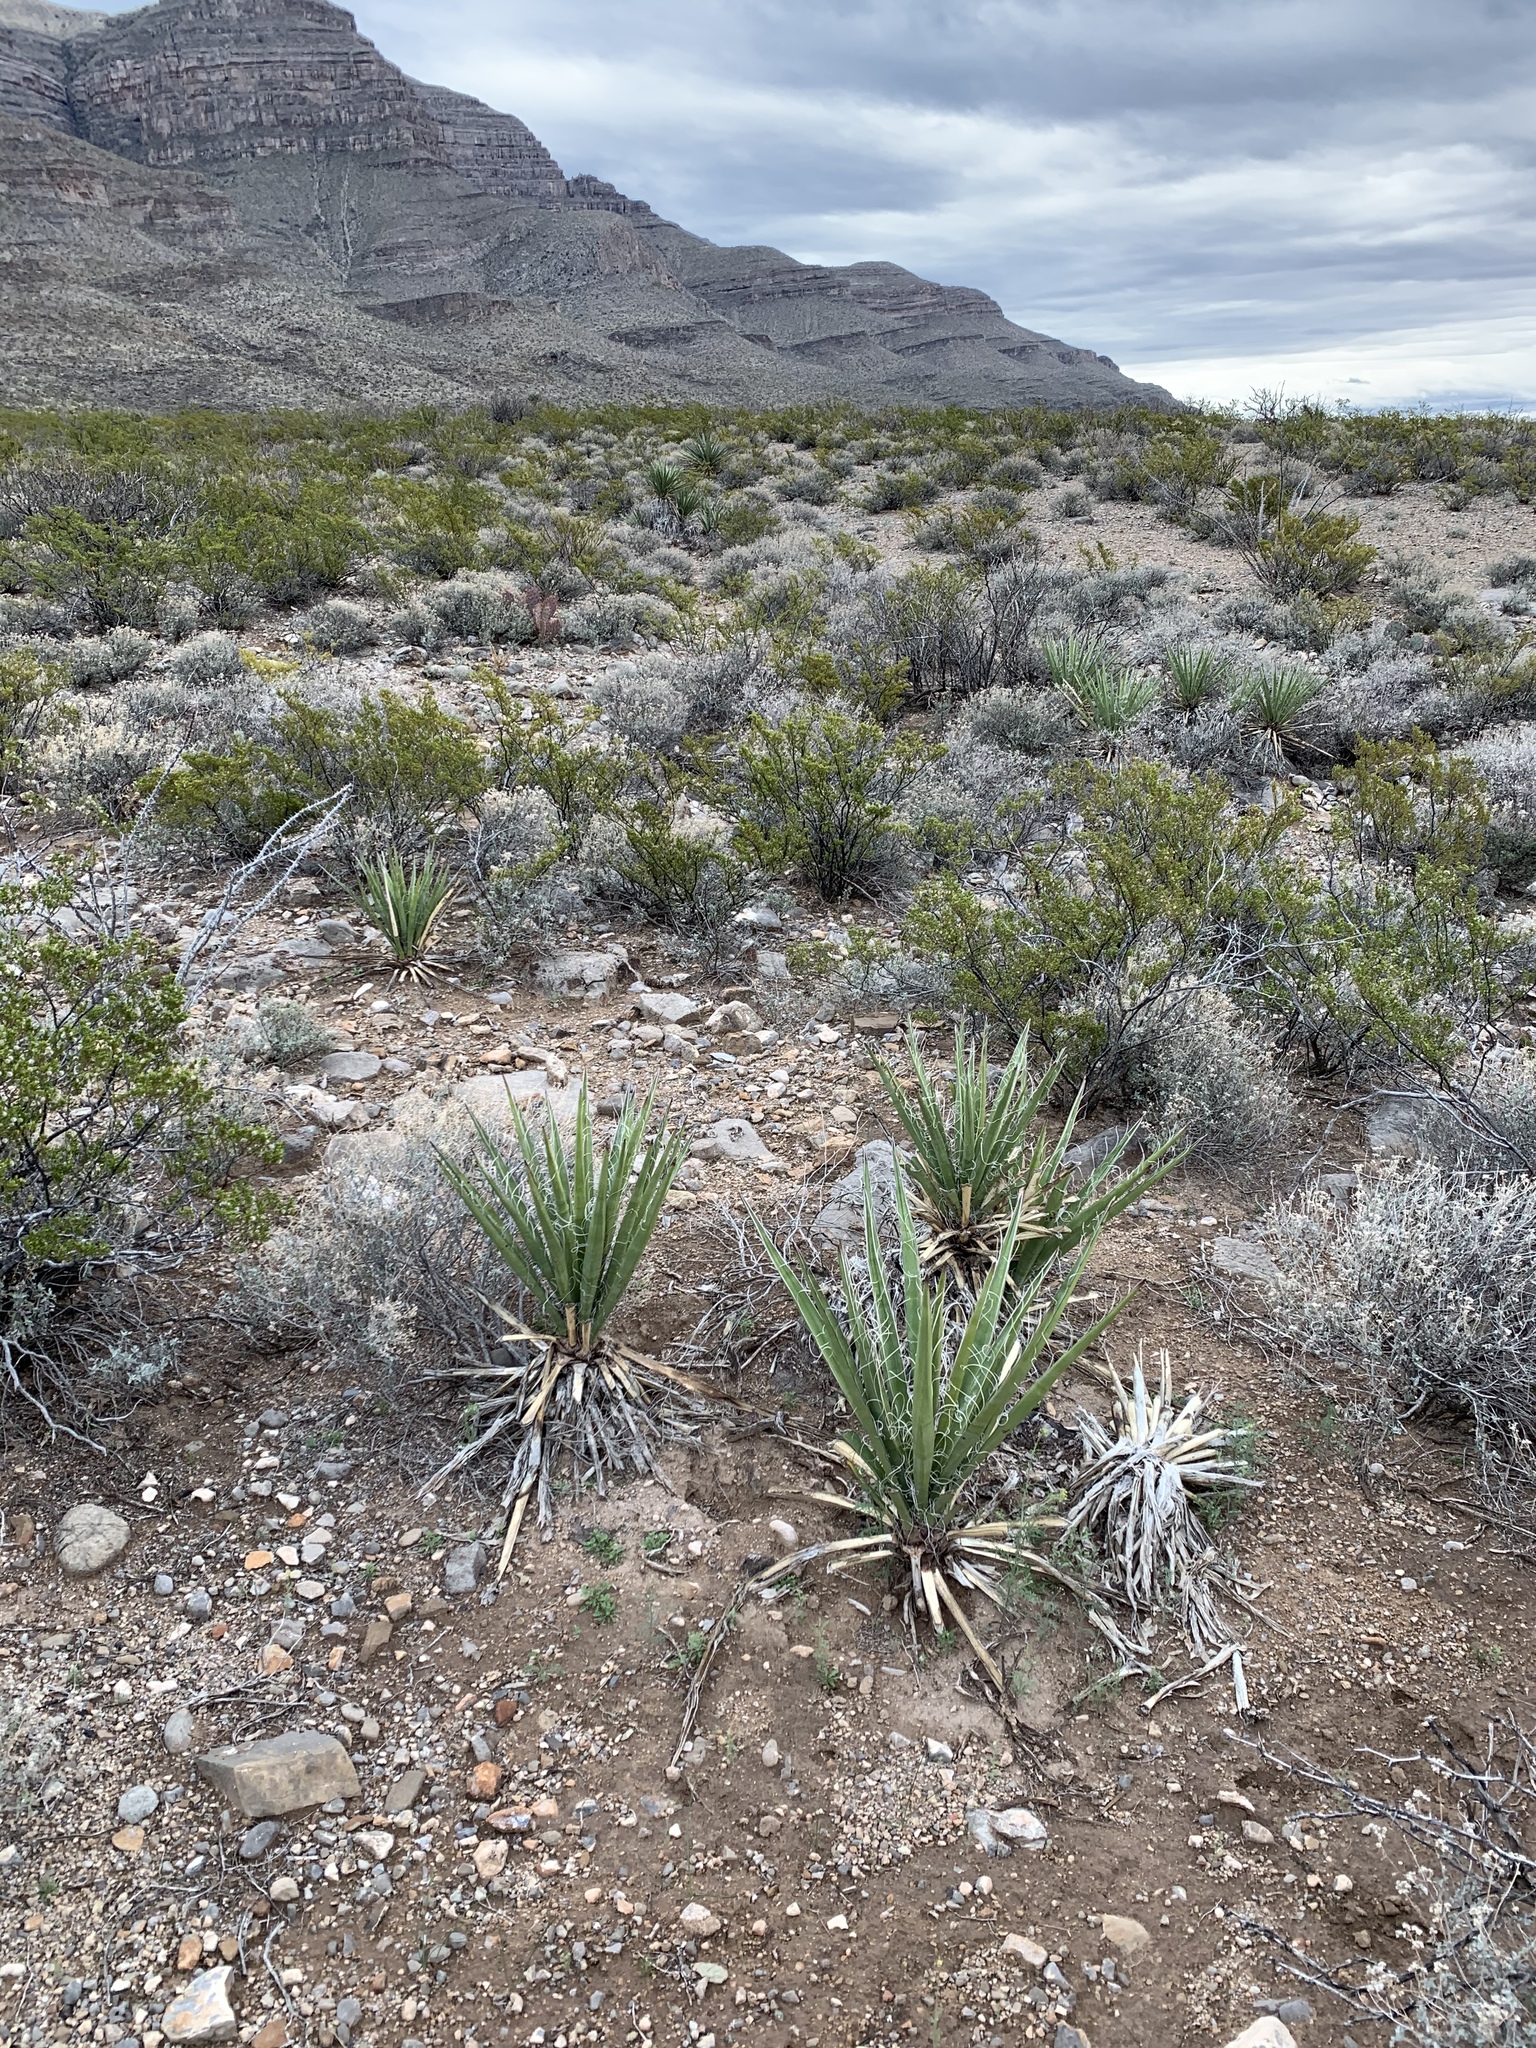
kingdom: Plantae
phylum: Tracheophyta
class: Liliopsida
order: Asparagales
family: Asparagaceae
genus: Yucca
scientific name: Yucca baccata
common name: Banana yucca
